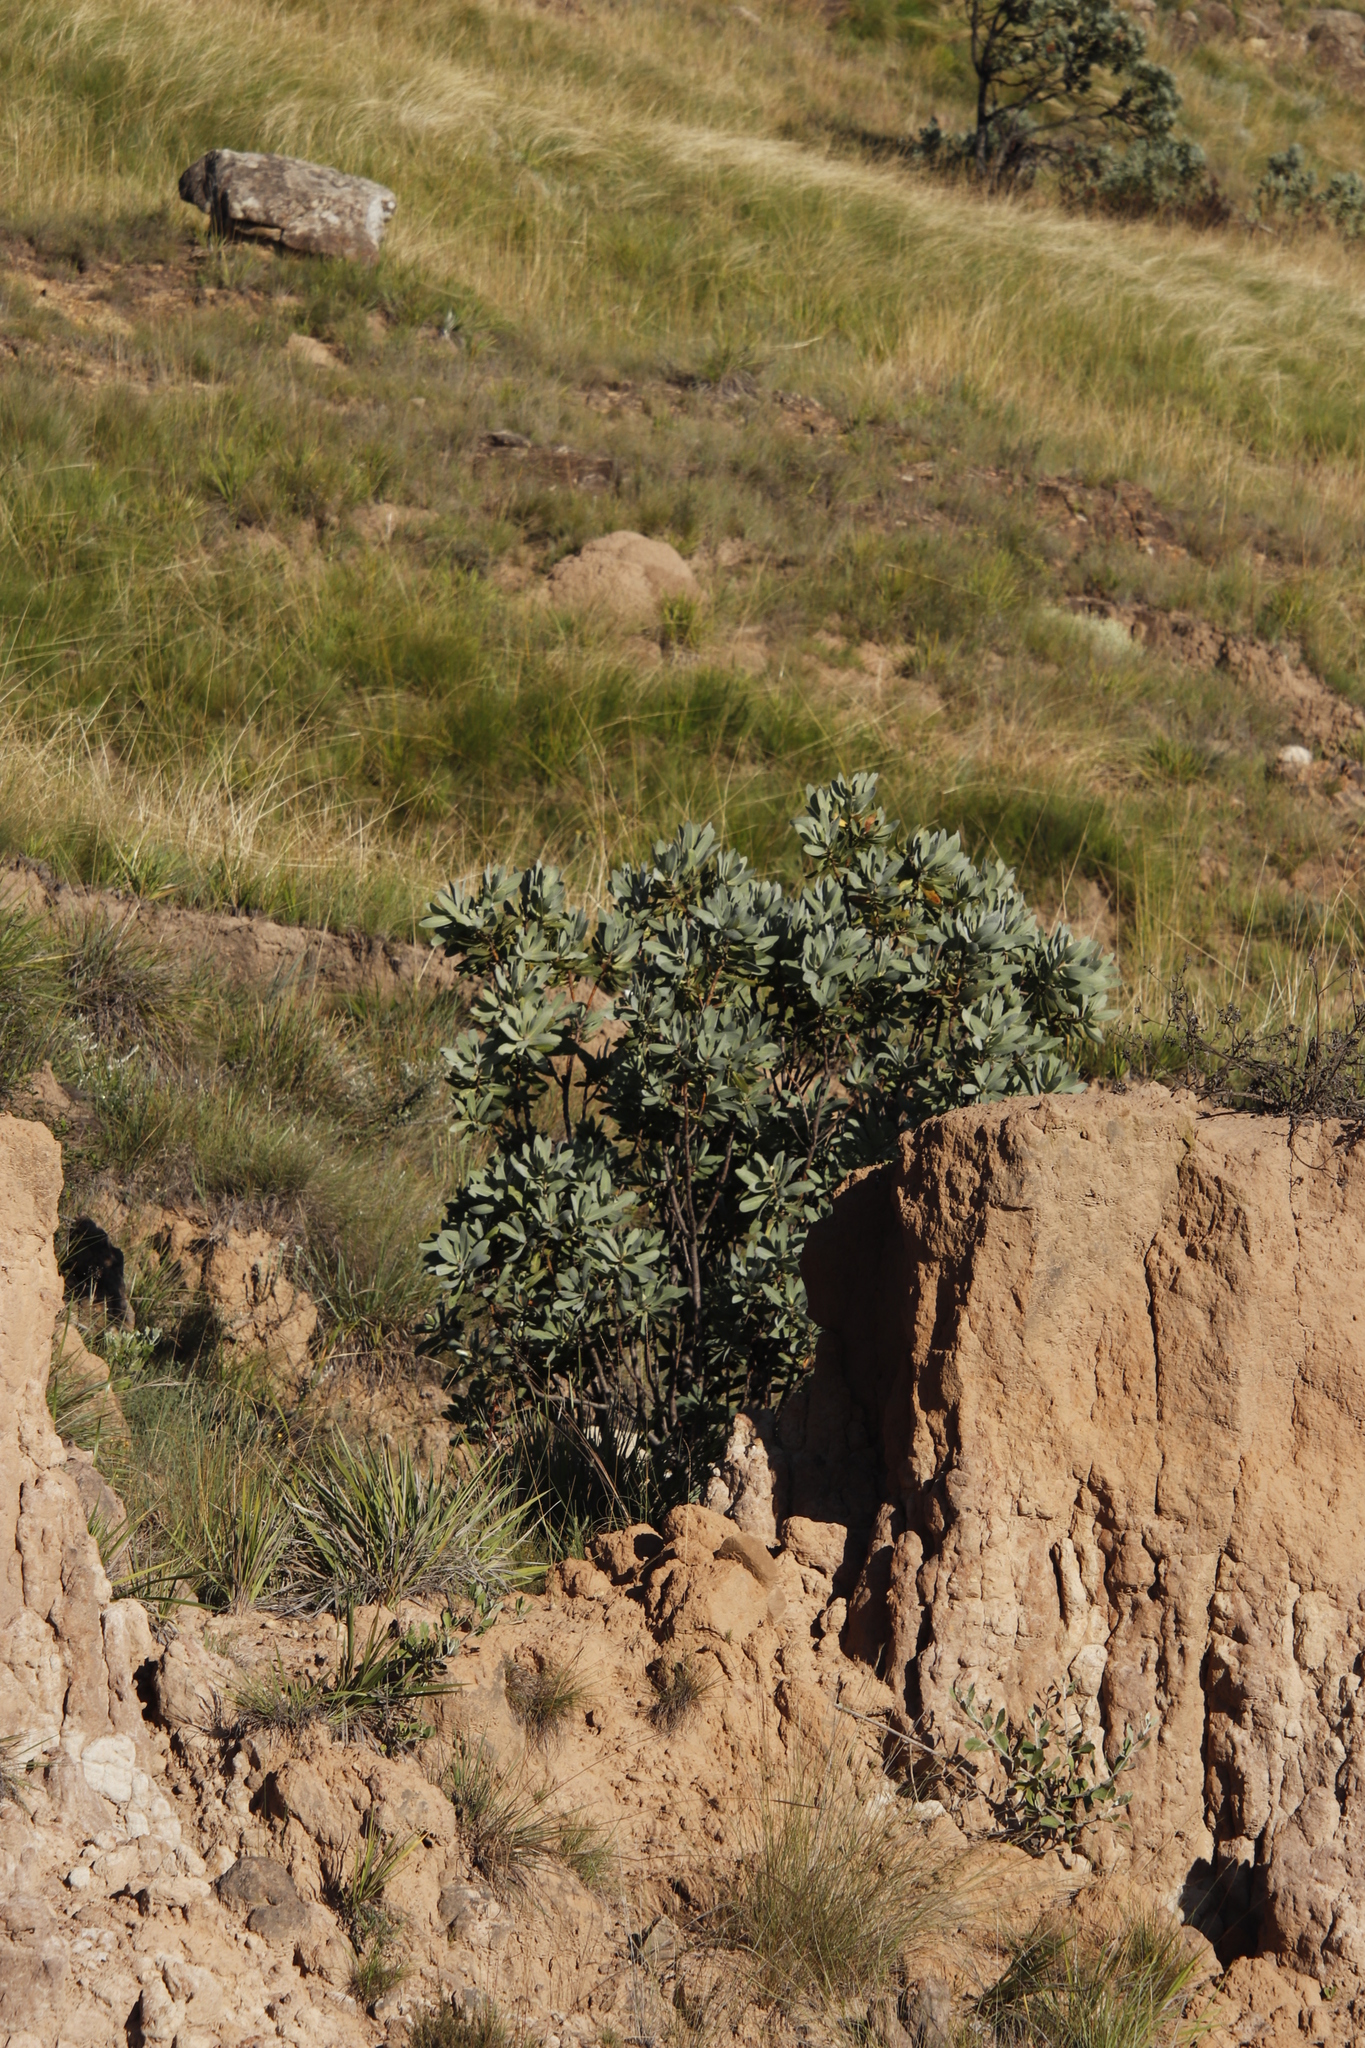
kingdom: Plantae
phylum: Tracheophyta
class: Magnoliopsida
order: Proteales
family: Proteaceae
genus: Protea
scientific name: Protea subvestita
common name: Lip-flower sugarbush
